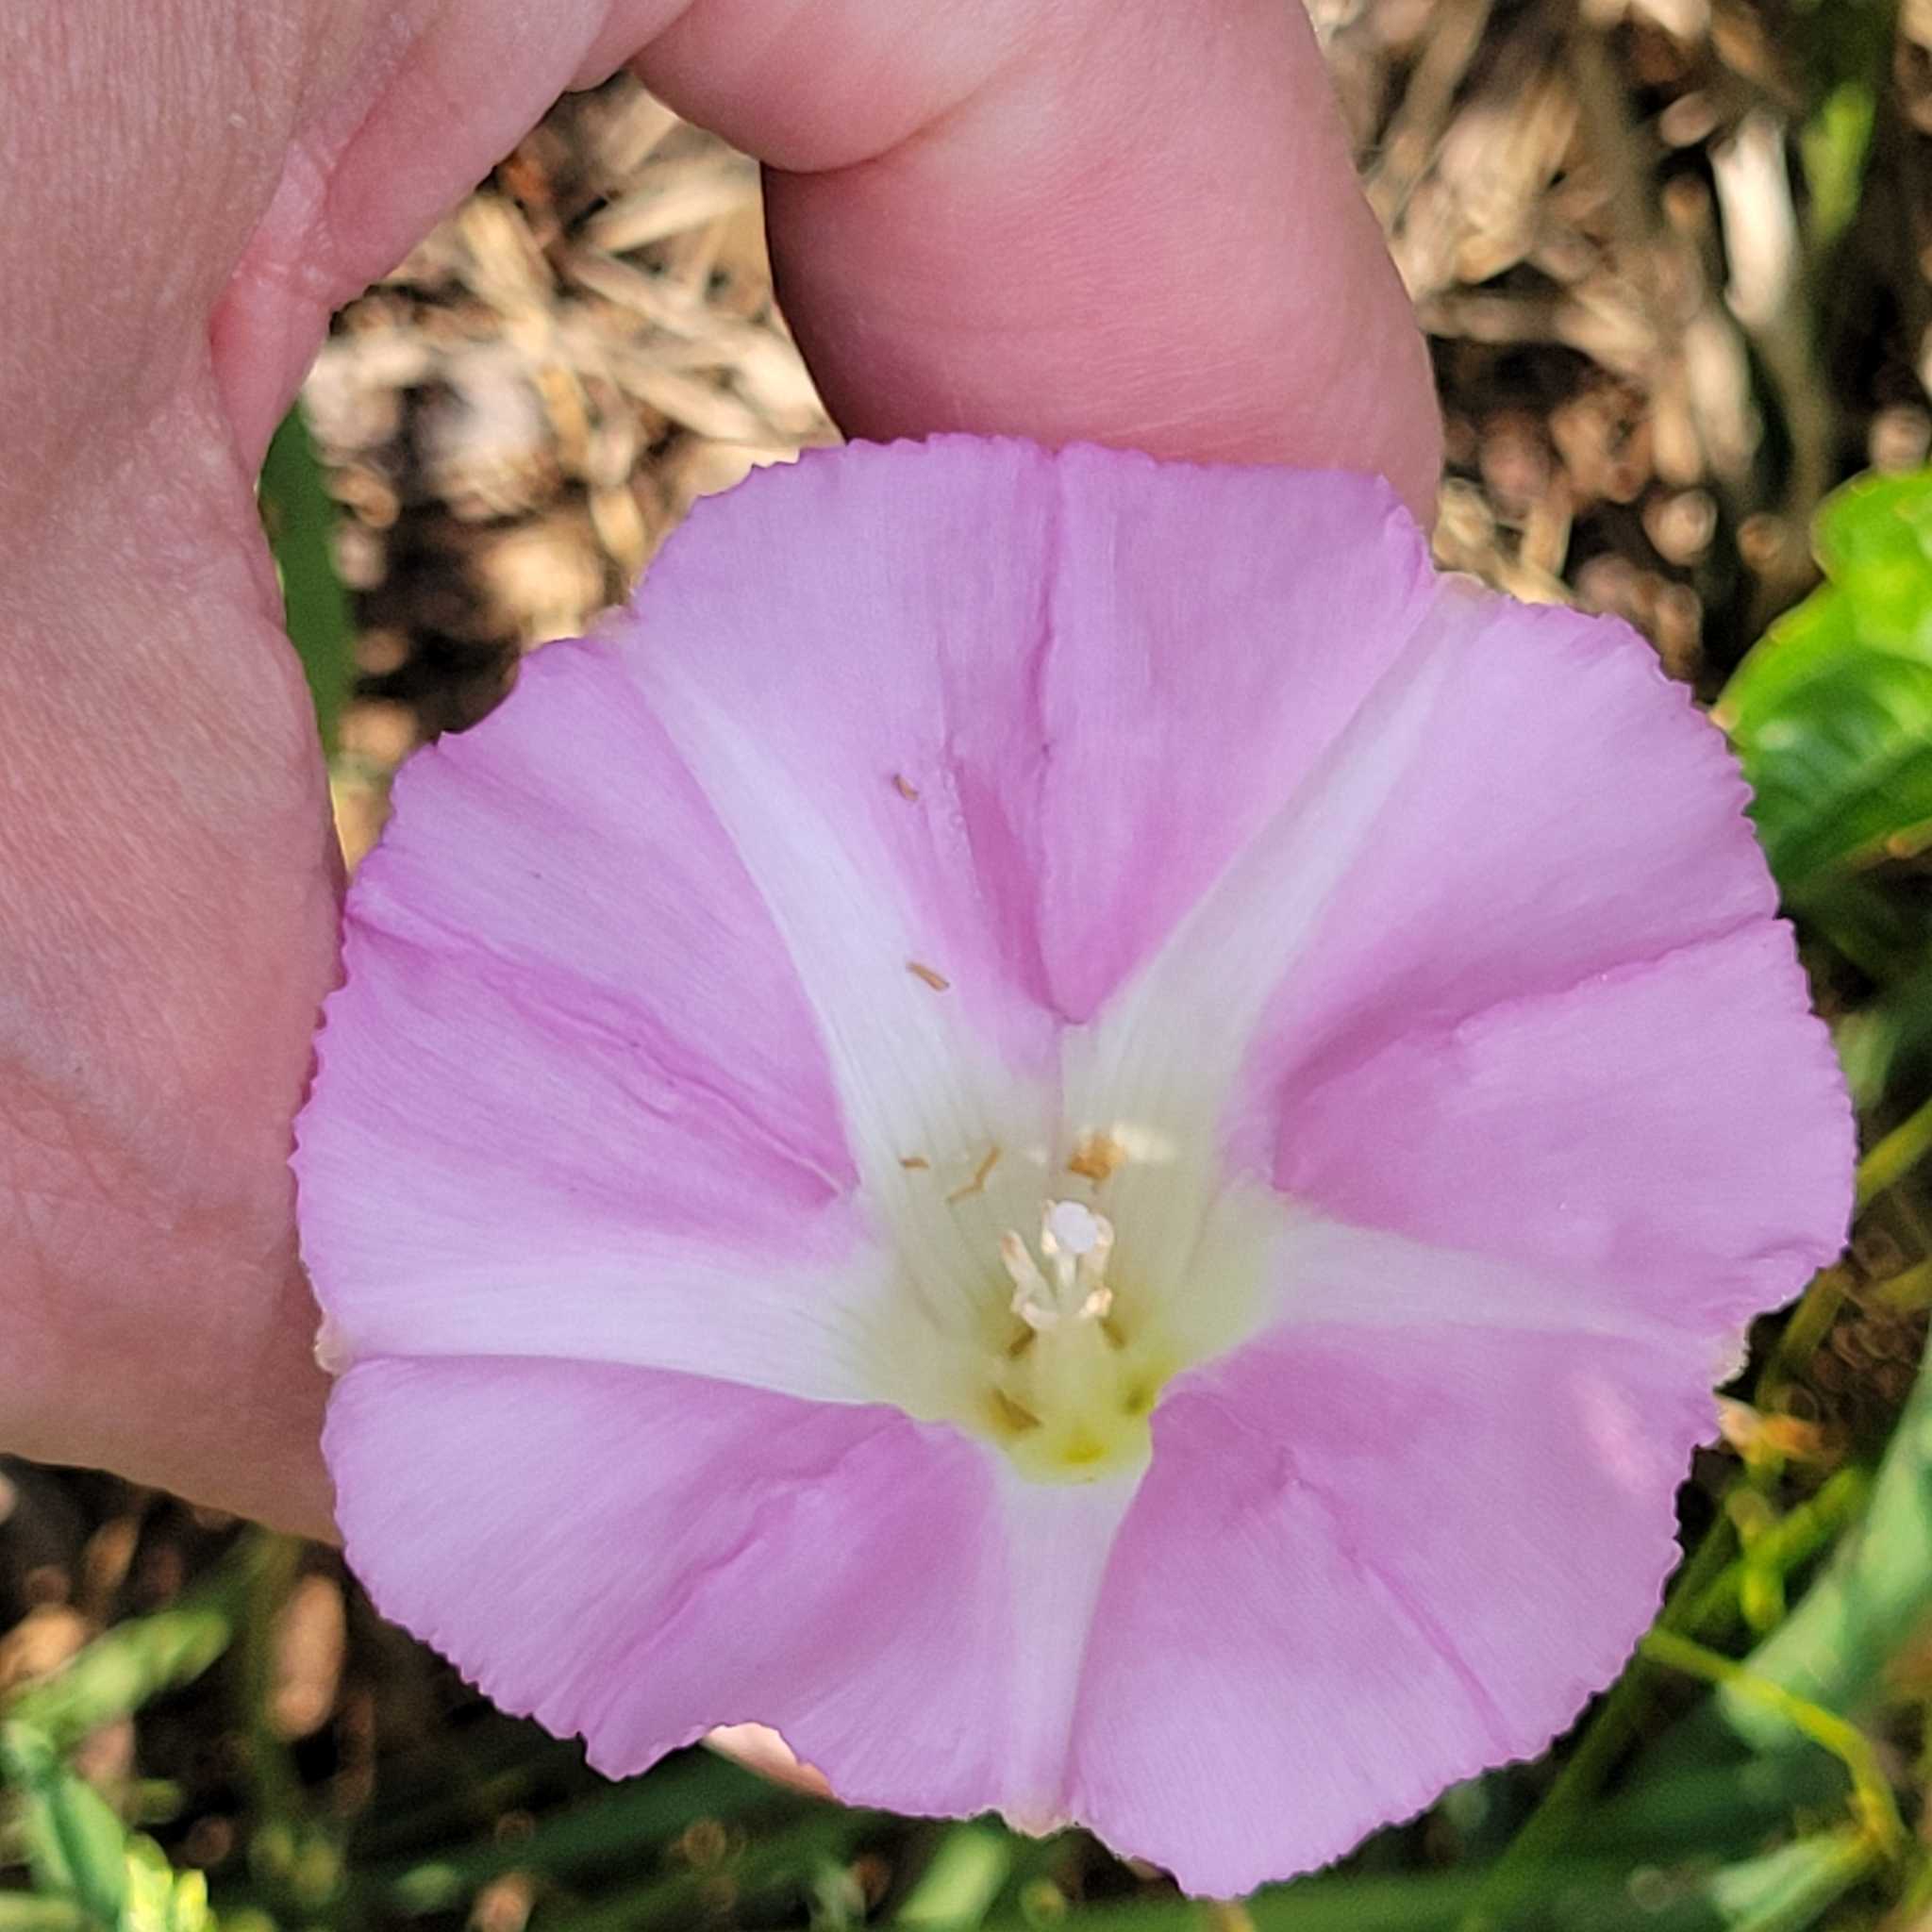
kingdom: Plantae
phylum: Tracheophyta
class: Magnoliopsida
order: Solanales
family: Convolvulaceae
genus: Calystegia
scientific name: Calystegia sepium
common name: Hedge bindweed
